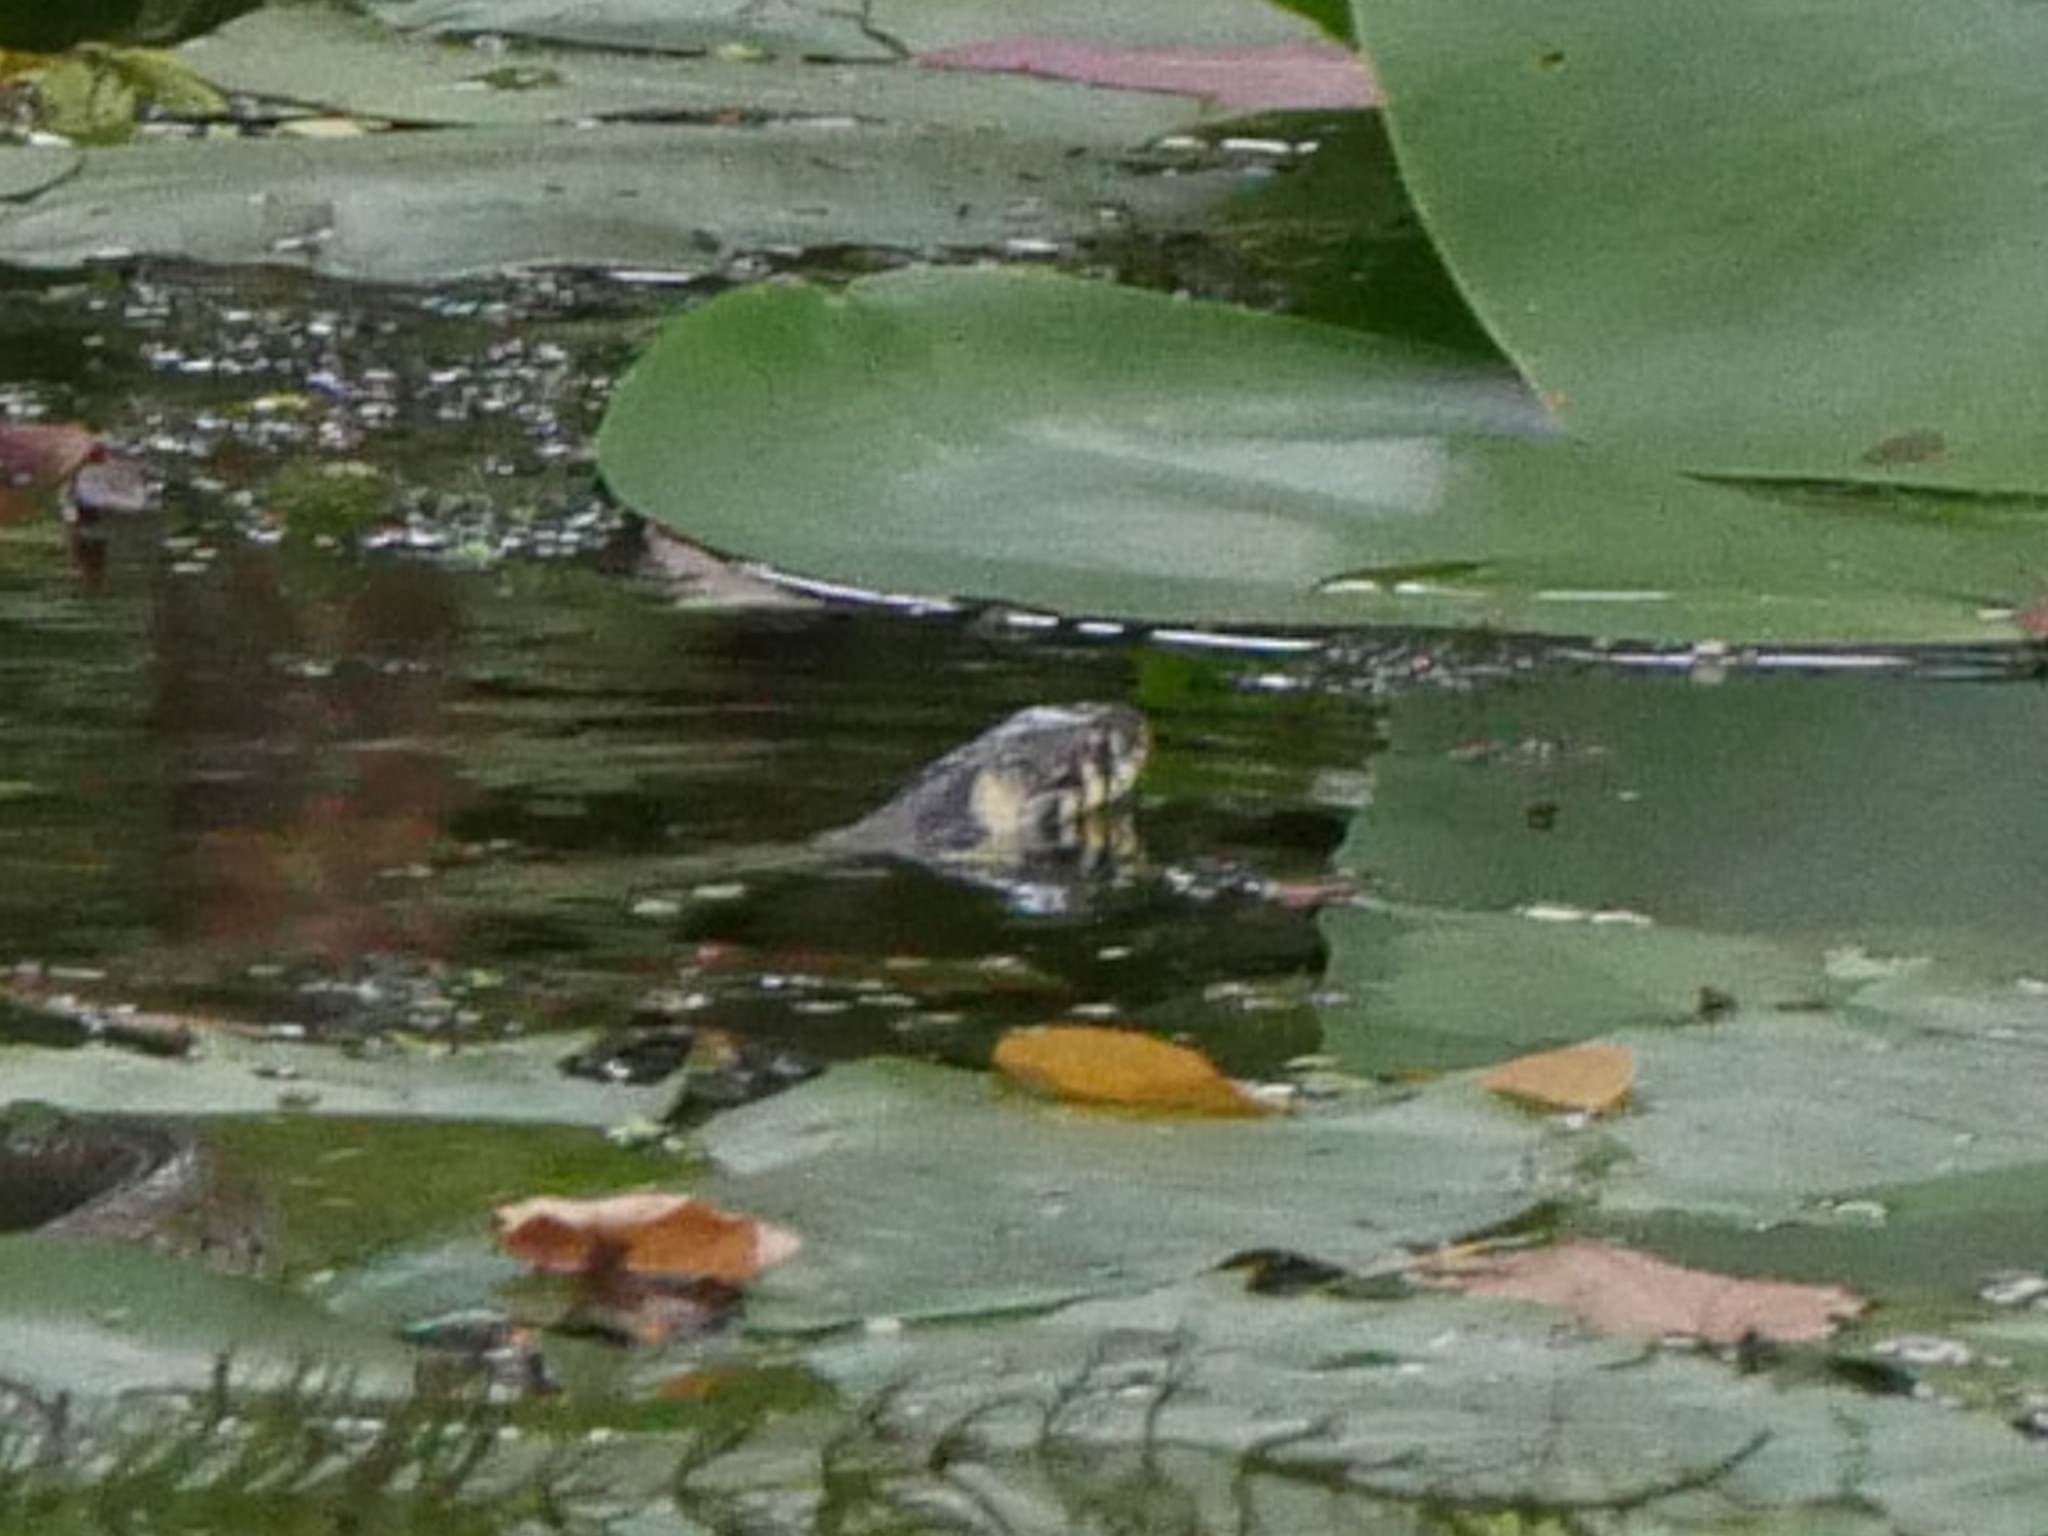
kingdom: Animalia
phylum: Chordata
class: Squamata
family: Colubridae
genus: Natrix
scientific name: Natrix natrix
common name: Grass snake
